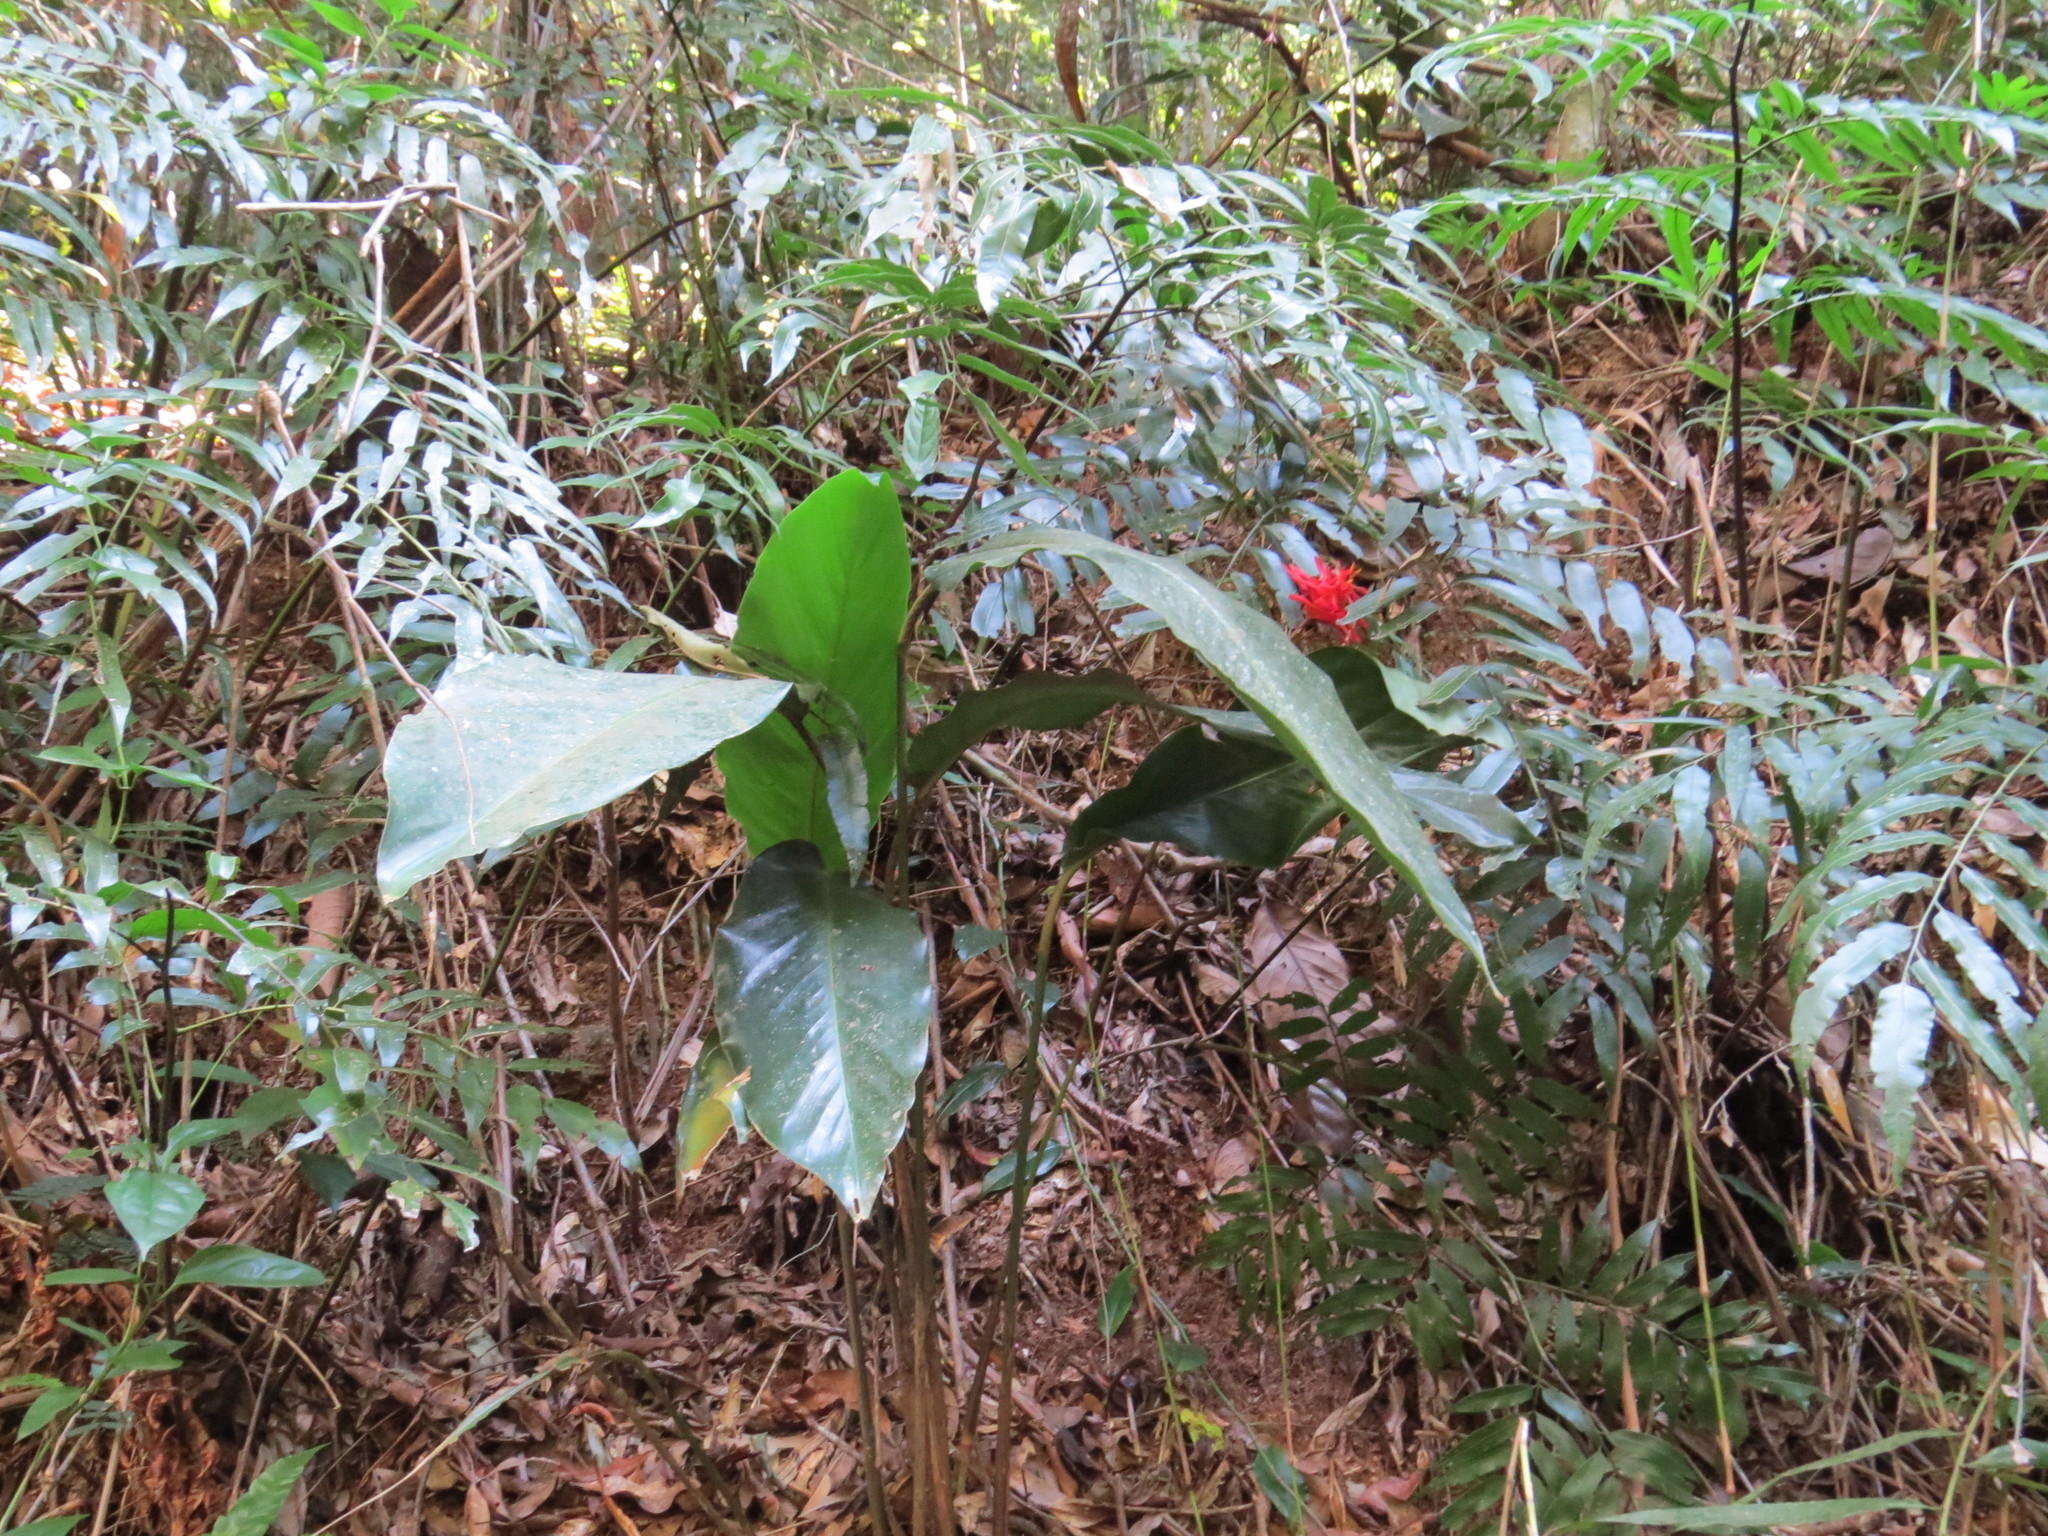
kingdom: Plantae
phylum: Tracheophyta
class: Liliopsida
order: Zingiberales
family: Marantaceae
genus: Goeppertia
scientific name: Goeppertia colorata
